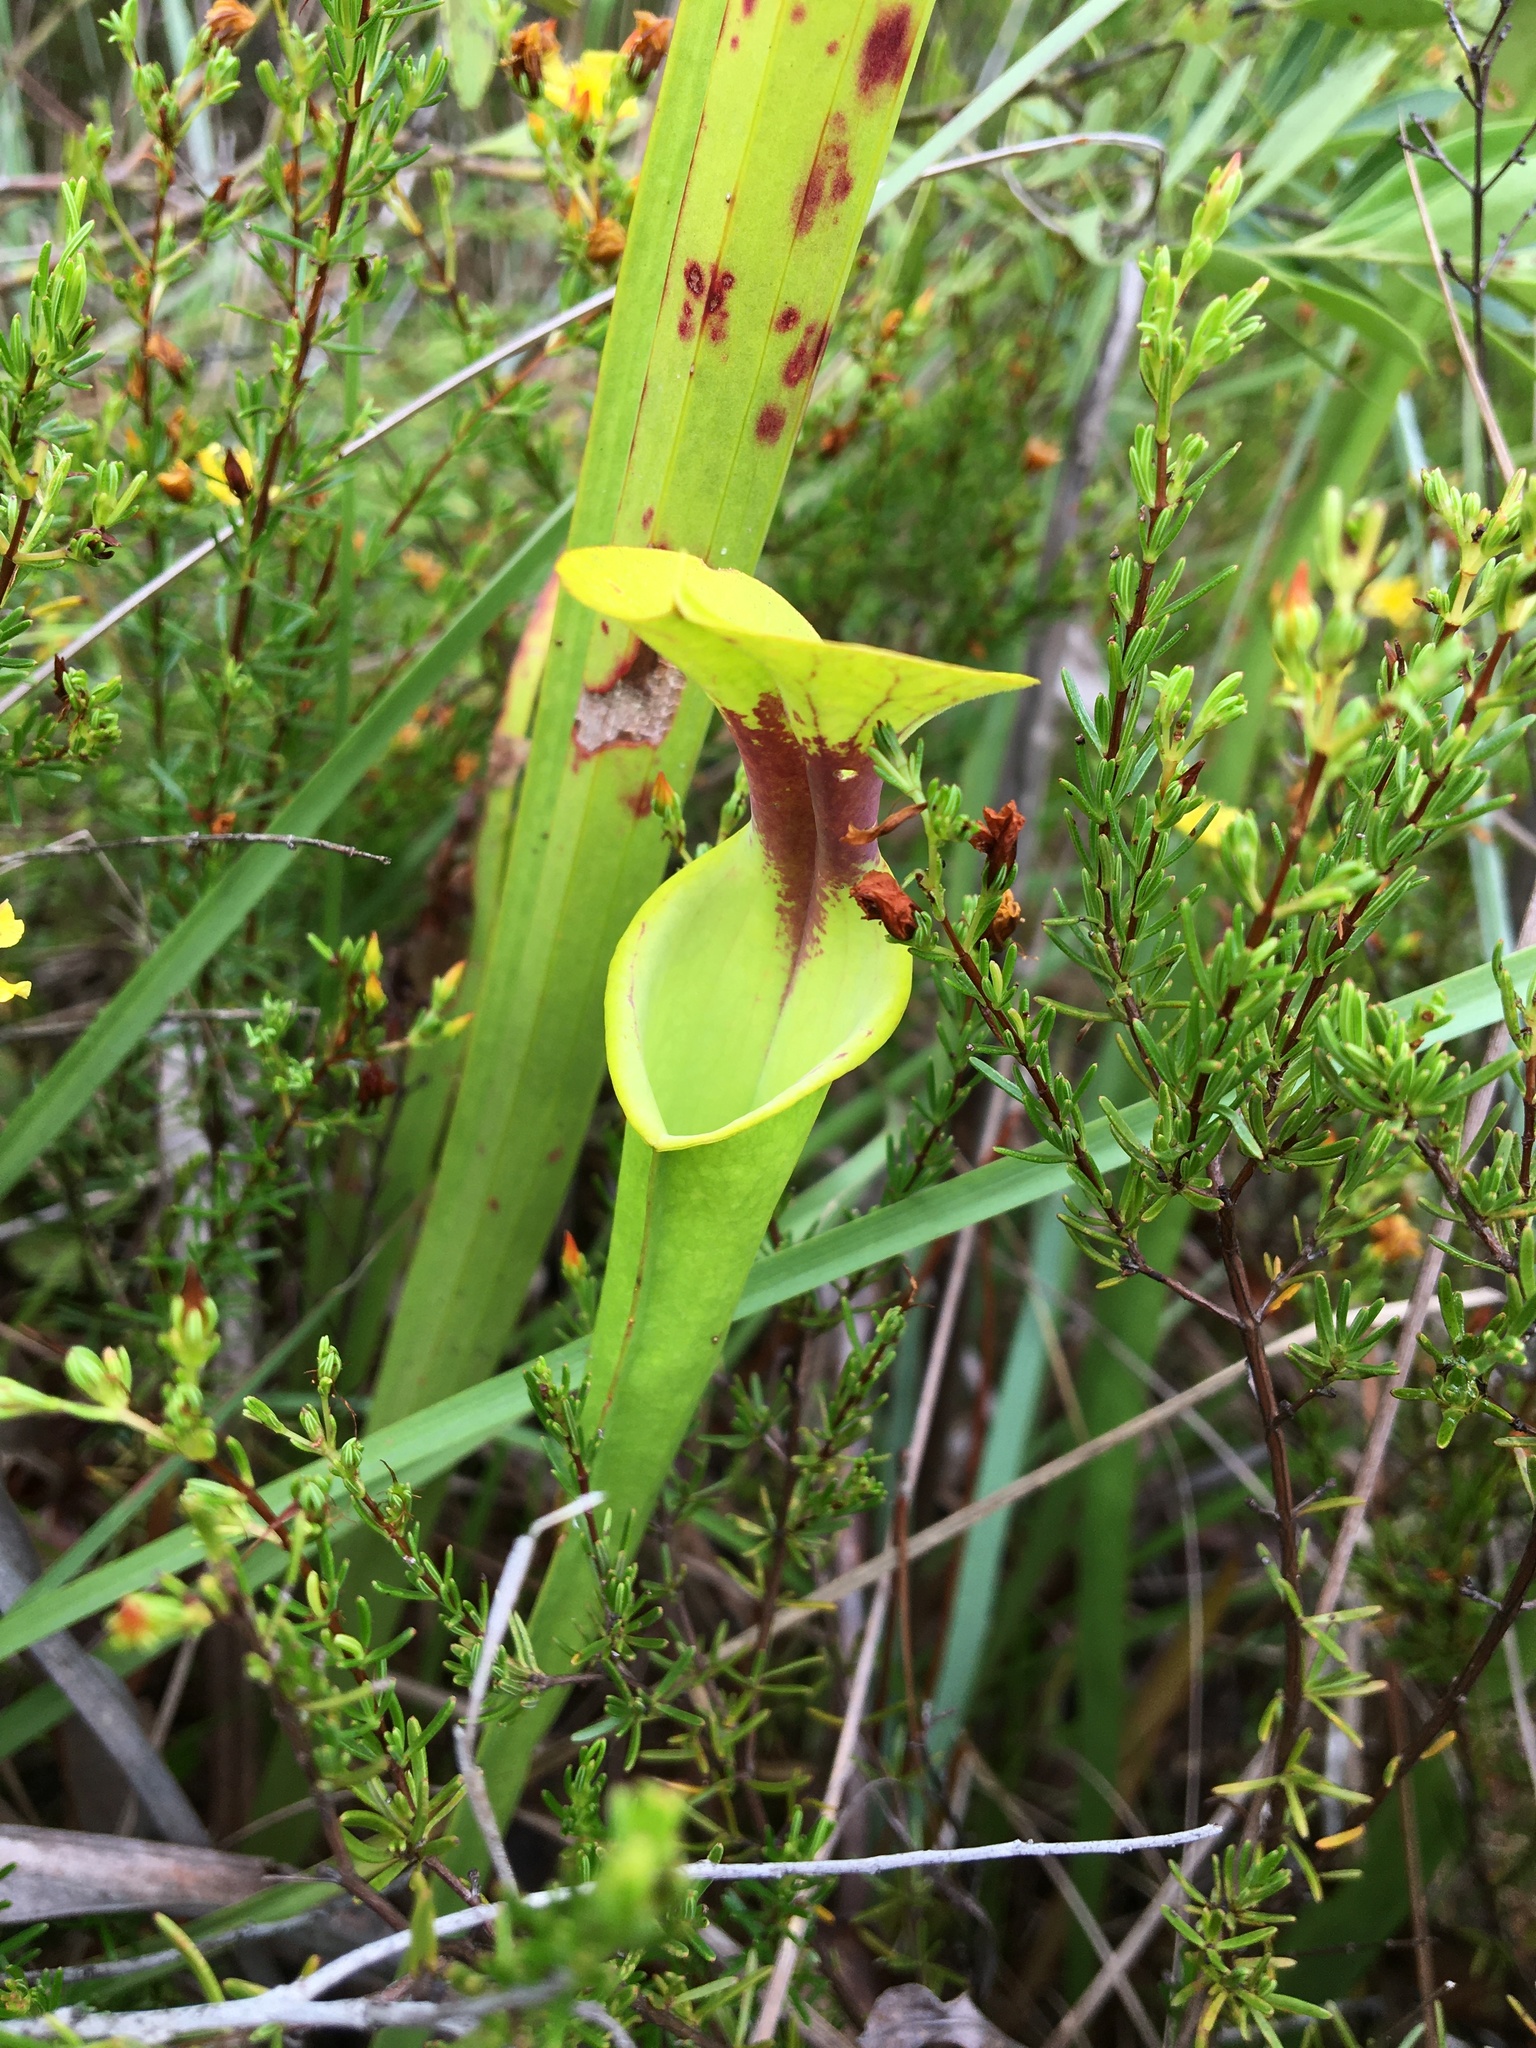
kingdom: Plantae
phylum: Tracheophyta
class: Magnoliopsida
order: Ericales
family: Sarraceniaceae
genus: Sarracenia
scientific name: Sarracenia flava
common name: Trumpets
